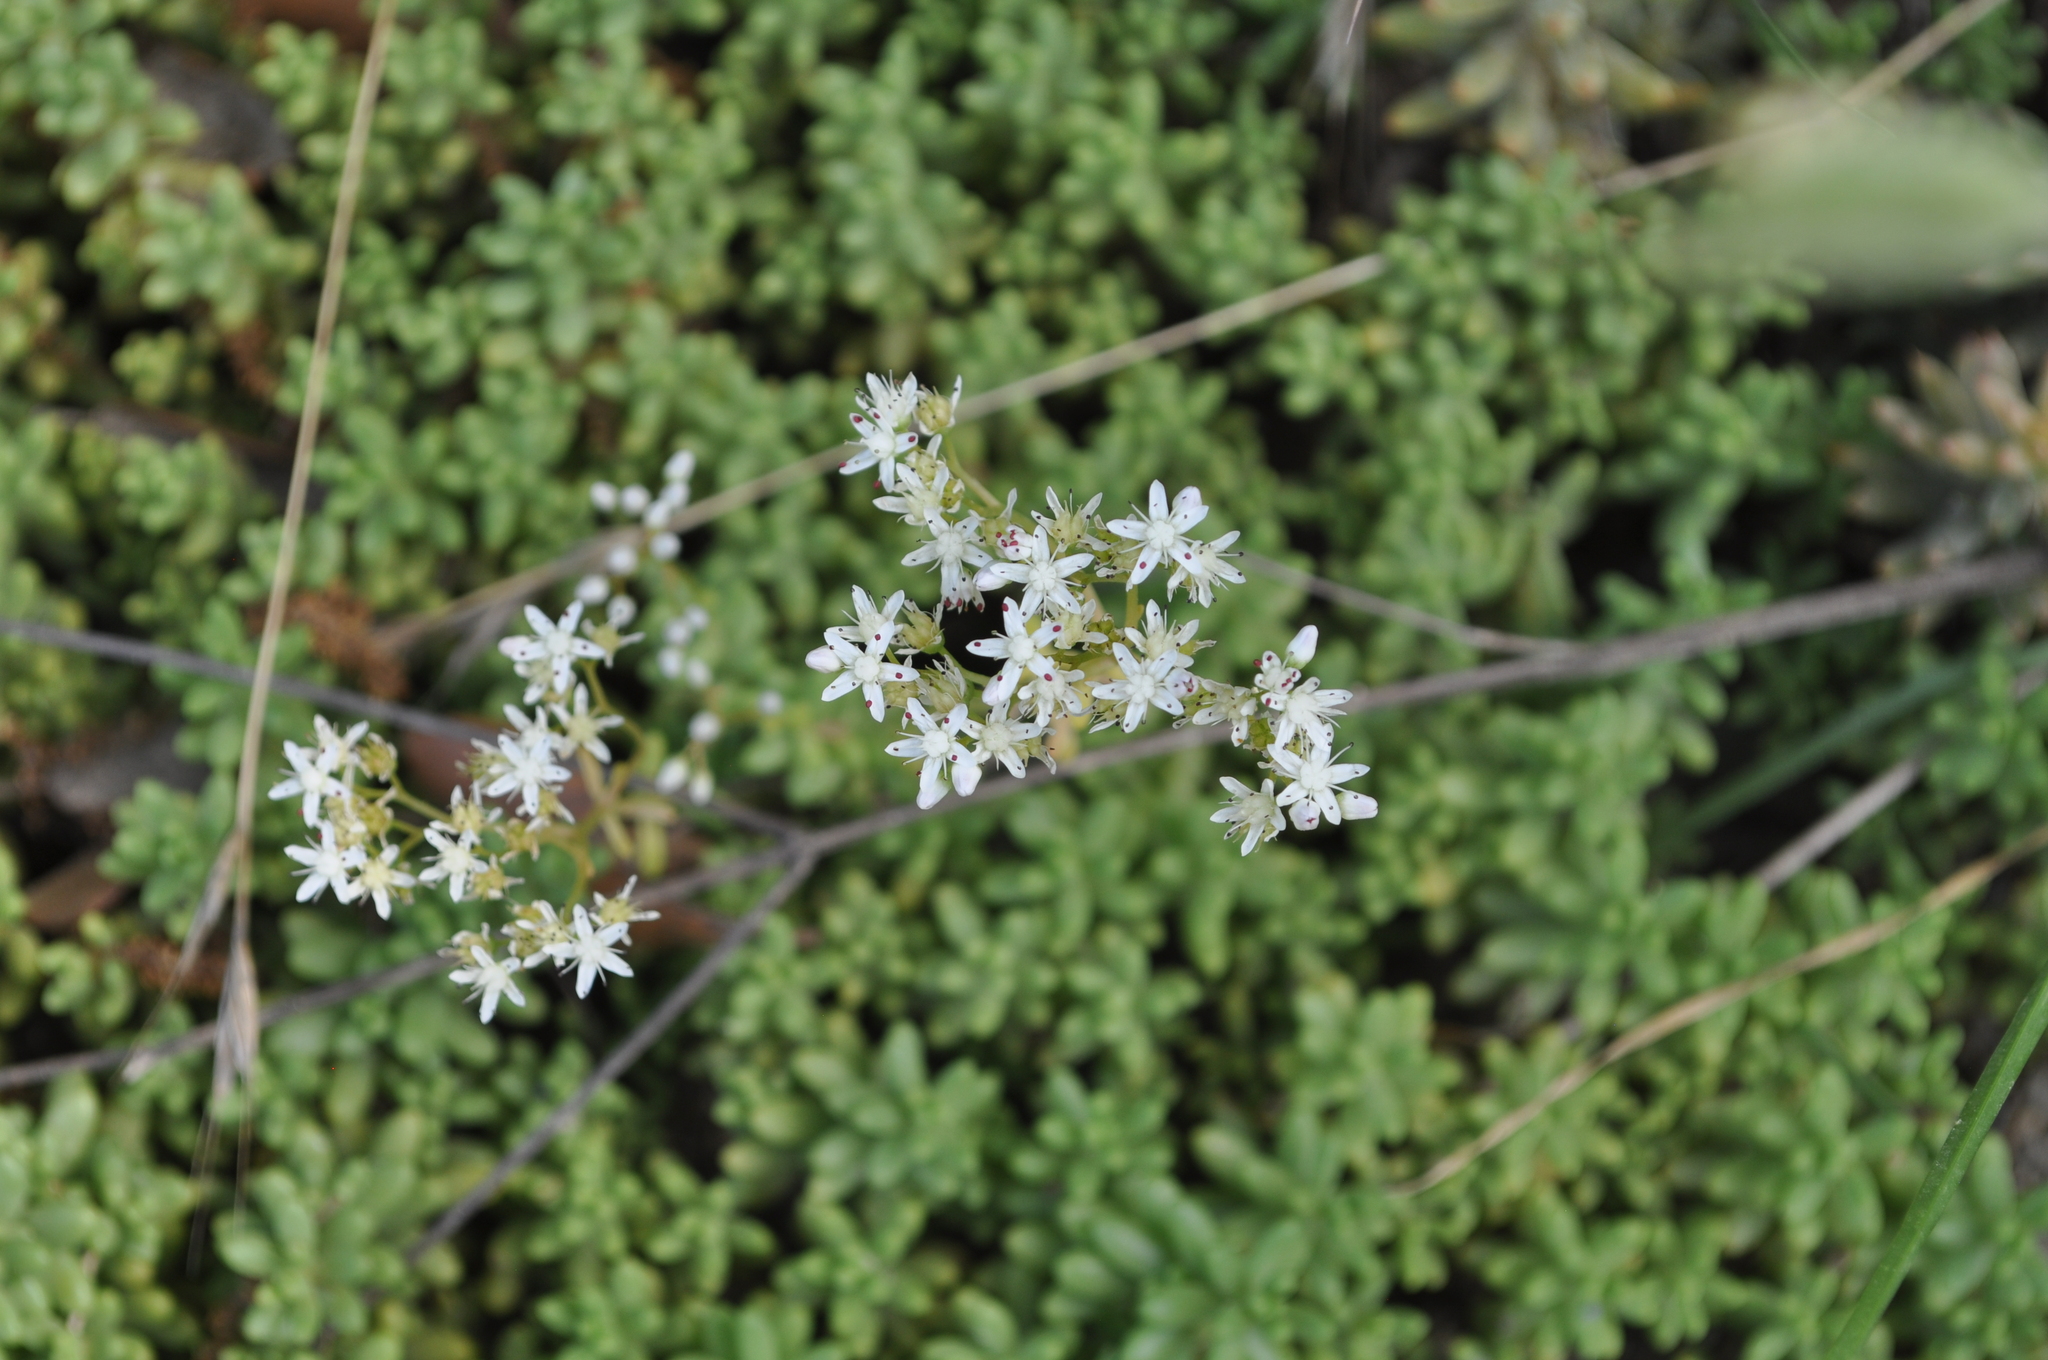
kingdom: Plantae
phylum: Tracheophyta
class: Magnoliopsida
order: Saxifragales
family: Crassulaceae
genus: Sedum
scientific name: Sedum album
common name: White stonecrop
